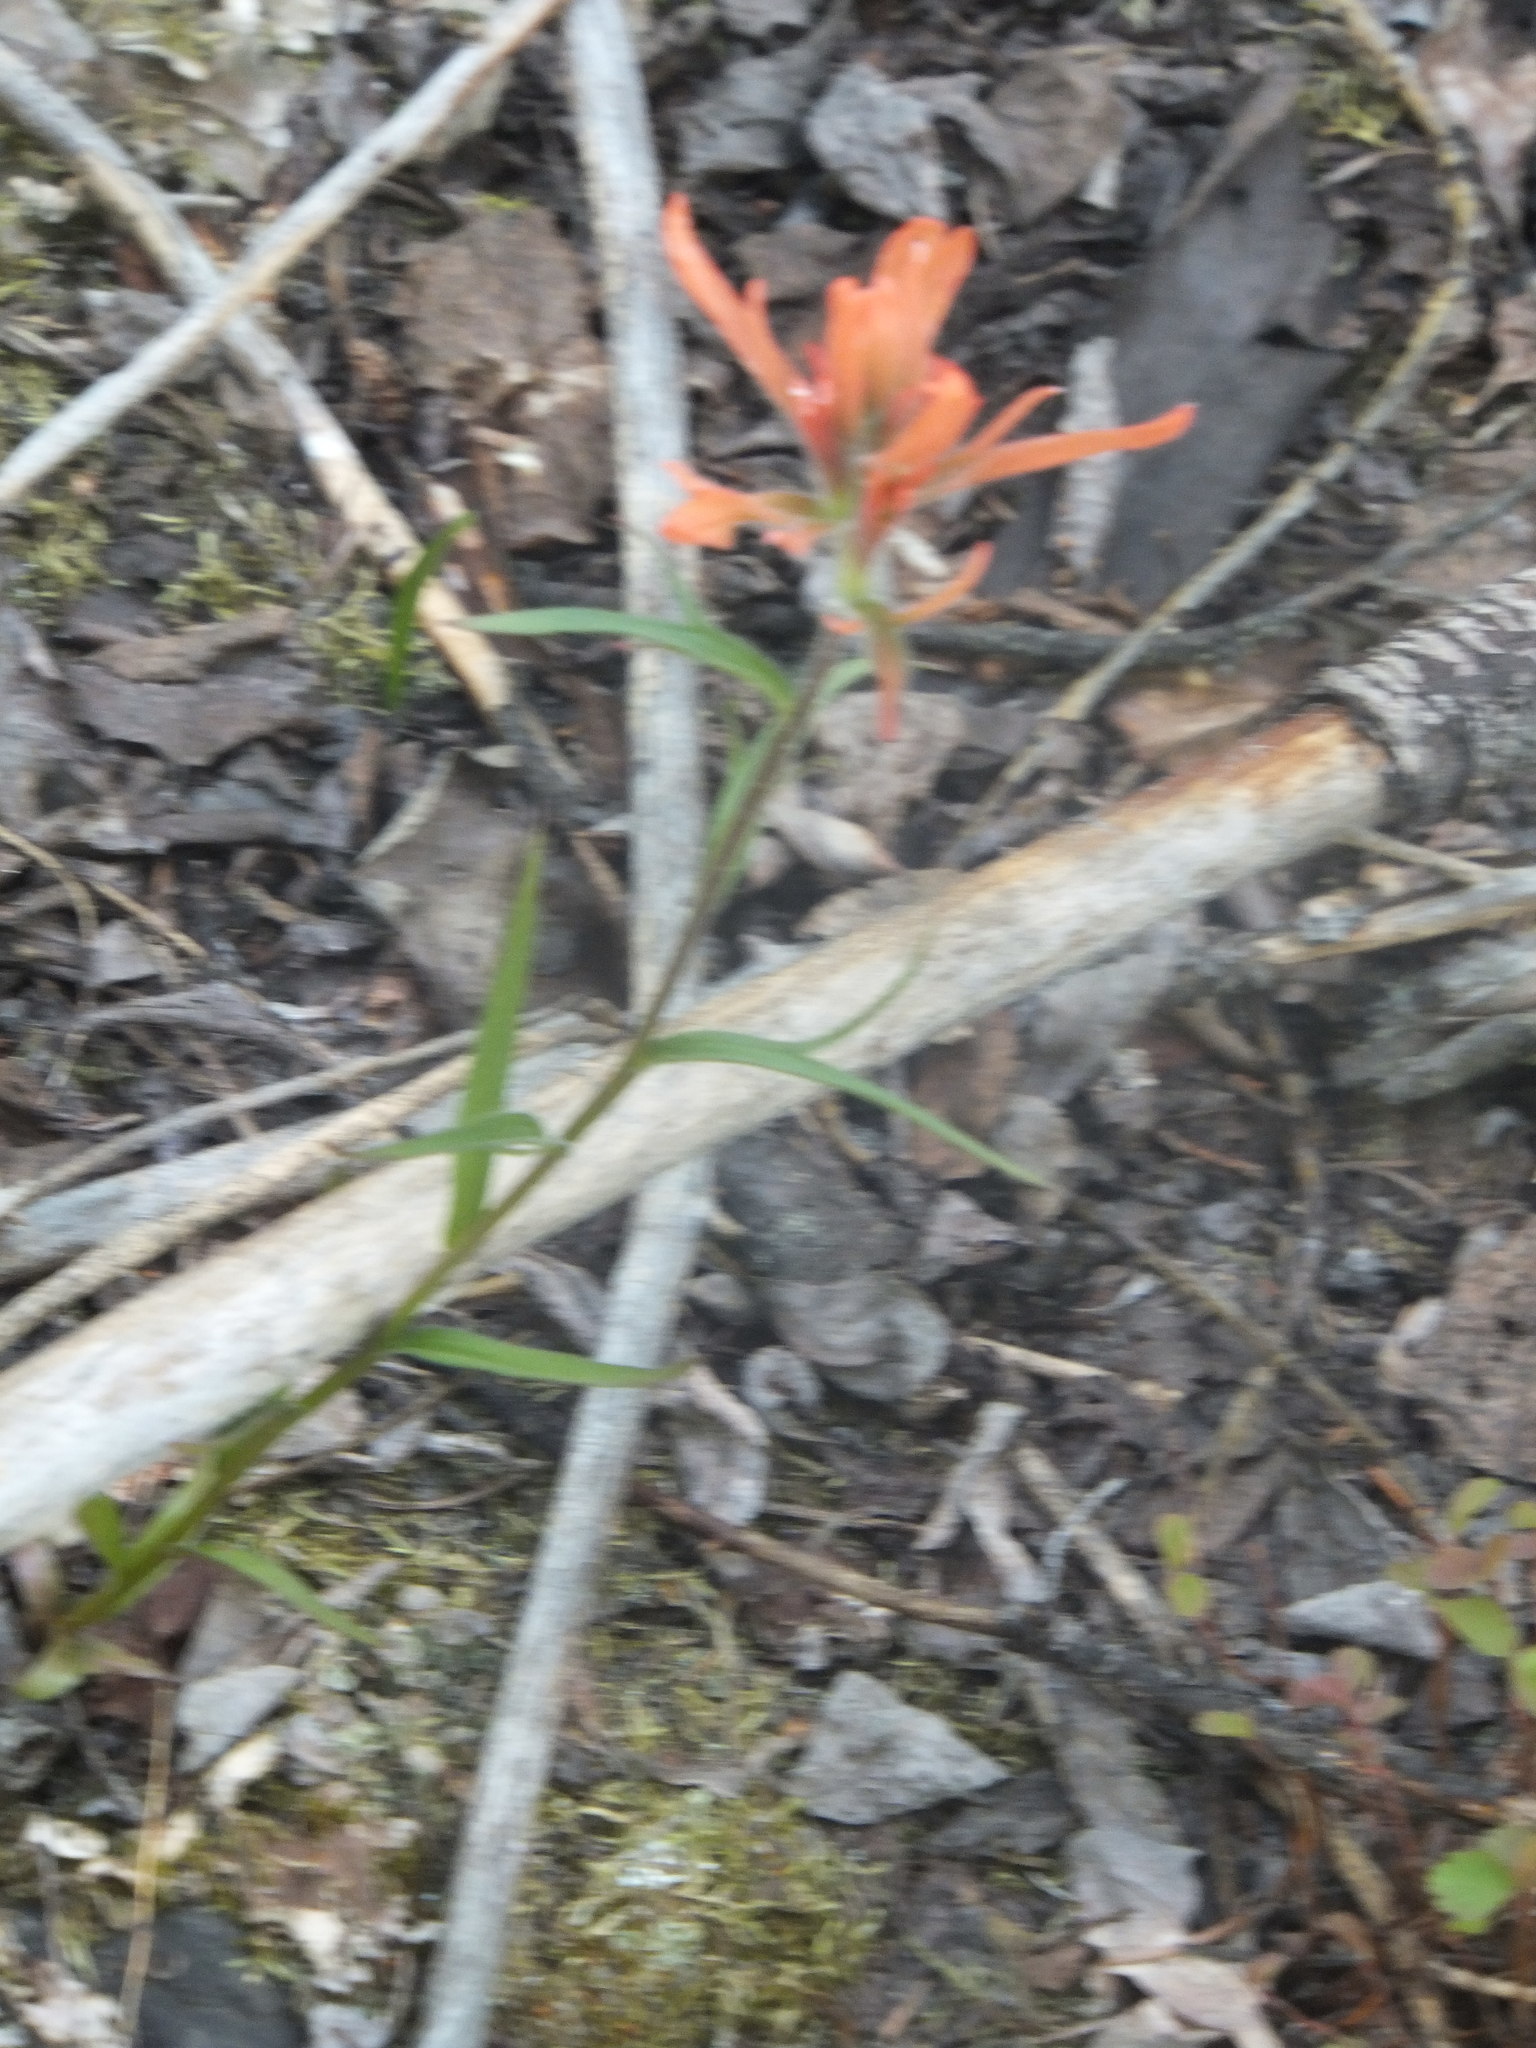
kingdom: Plantae
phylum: Tracheophyta
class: Magnoliopsida
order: Lamiales
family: Orobanchaceae
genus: Castilleja
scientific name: Castilleja miniata
